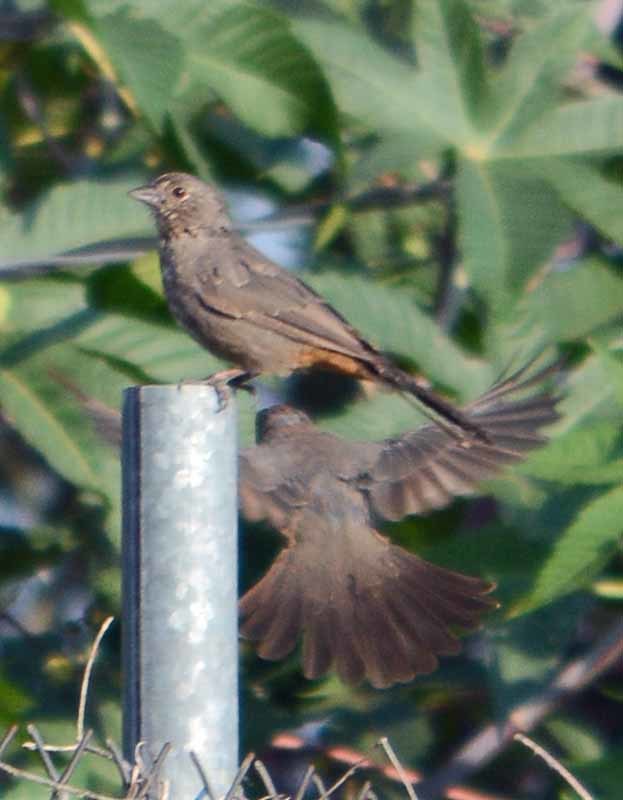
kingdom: Animalia
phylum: Chordata
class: Aves
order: Passeriformes
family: Passerellidae
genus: Melozone
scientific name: Melozone fusca
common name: Canyon towhee
